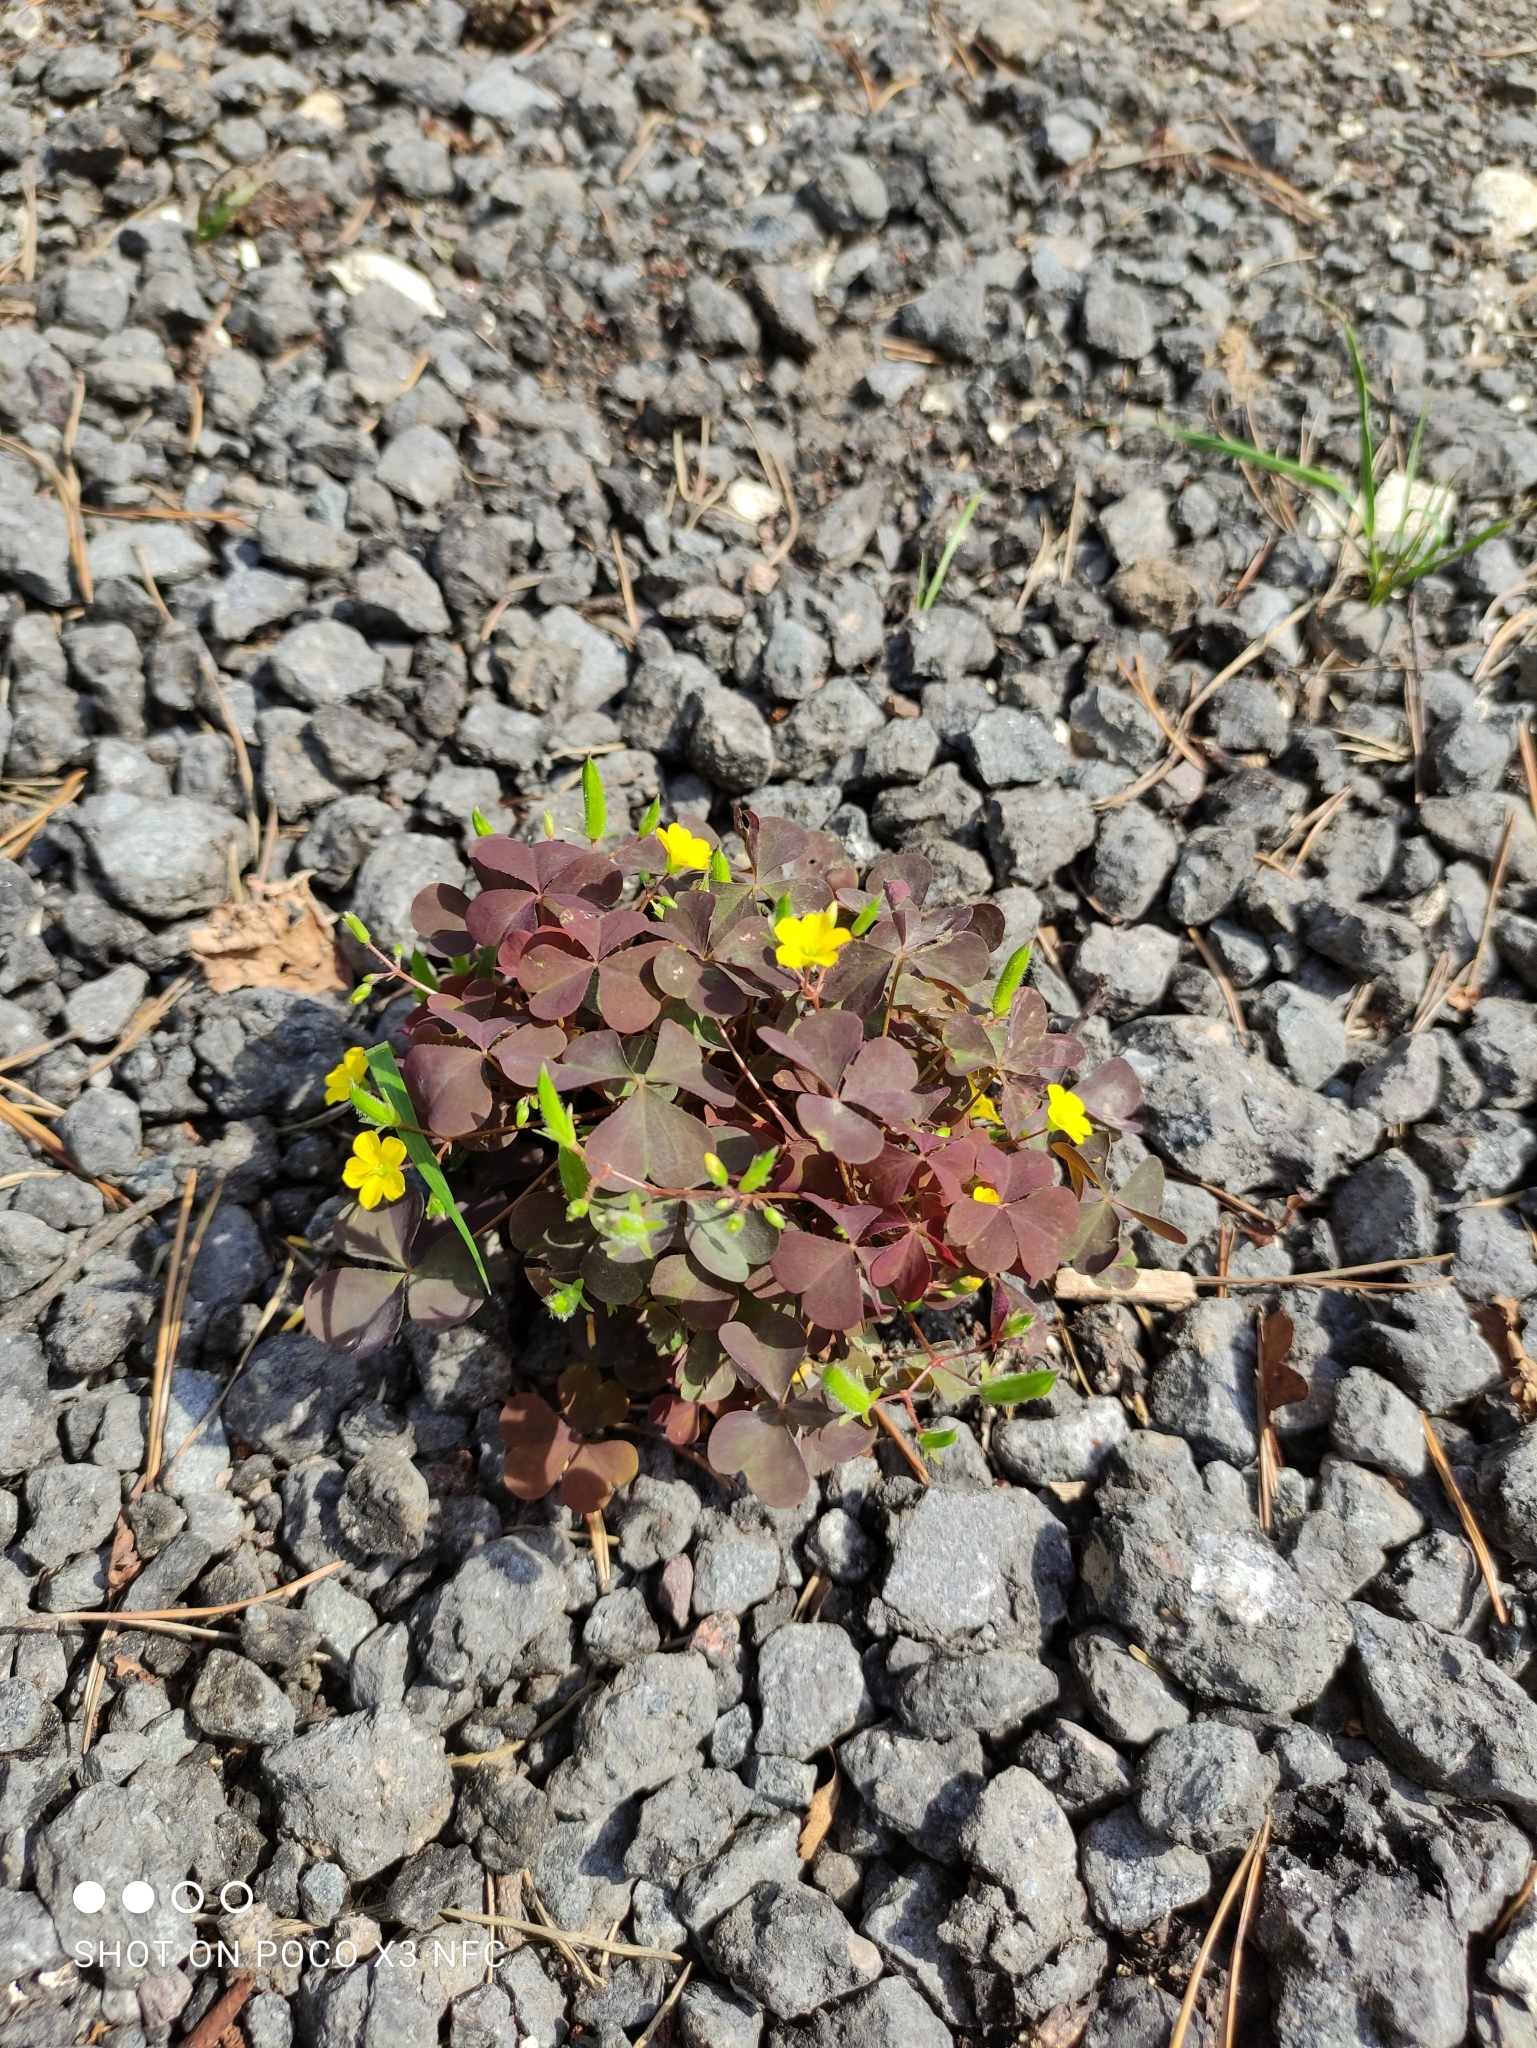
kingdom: Plantae
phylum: Tracheophyta
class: Magnoliopsida
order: Oxalidales
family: Oxalidaceae
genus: Oxalis
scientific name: Oxalis stricta
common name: Upright yellow-sorrel
